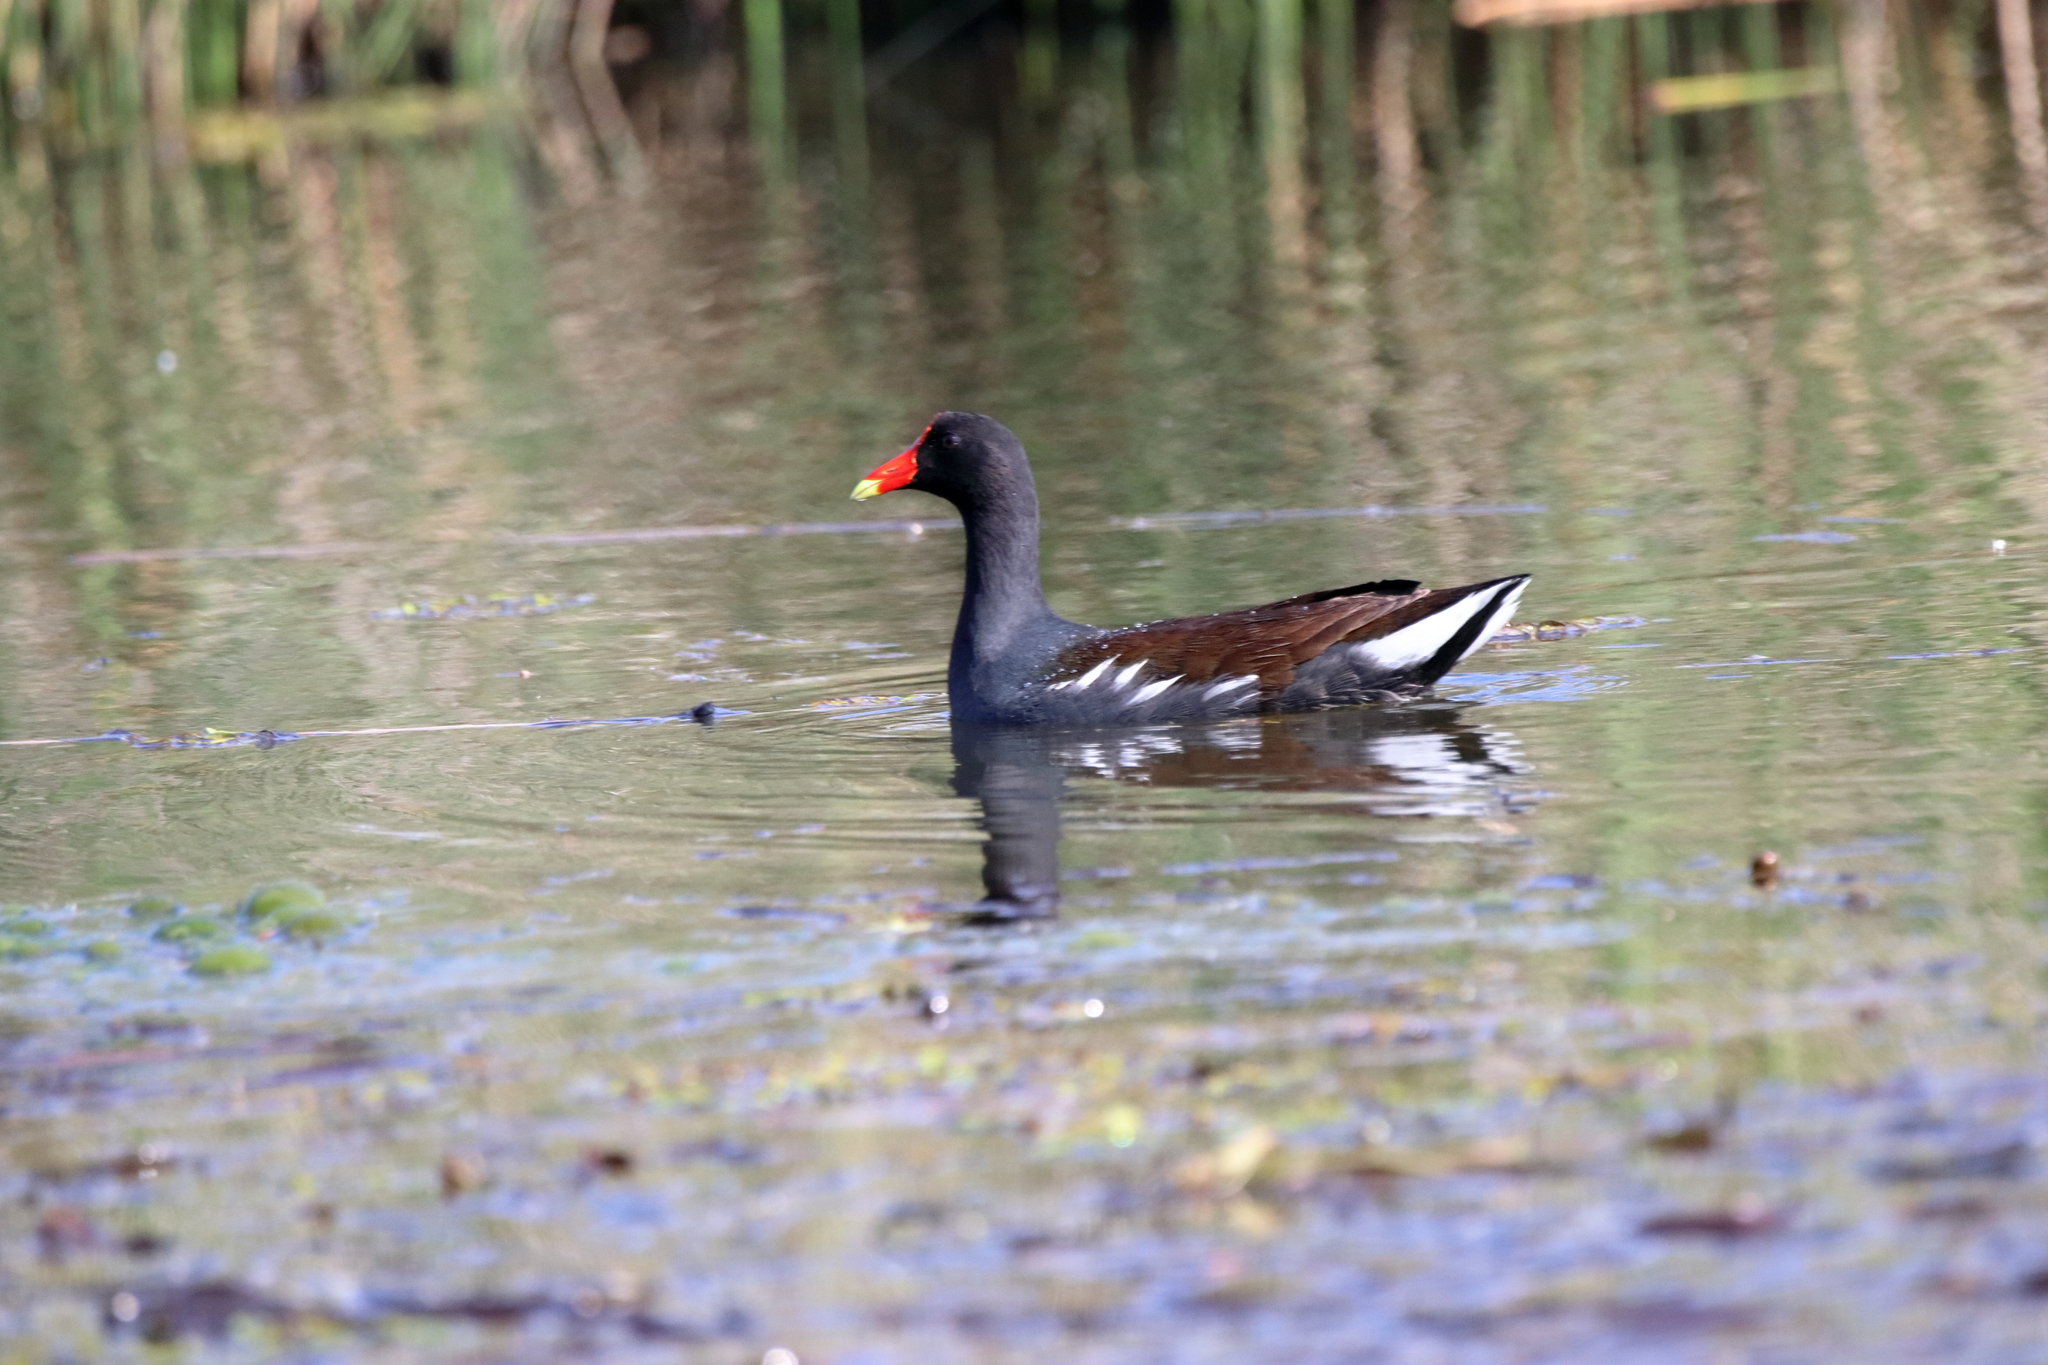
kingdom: Animalia
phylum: Chordata
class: Aves
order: Gruiformes
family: Rallidae
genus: Gallinula
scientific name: Gallinula chloropus
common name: Common moorhen
